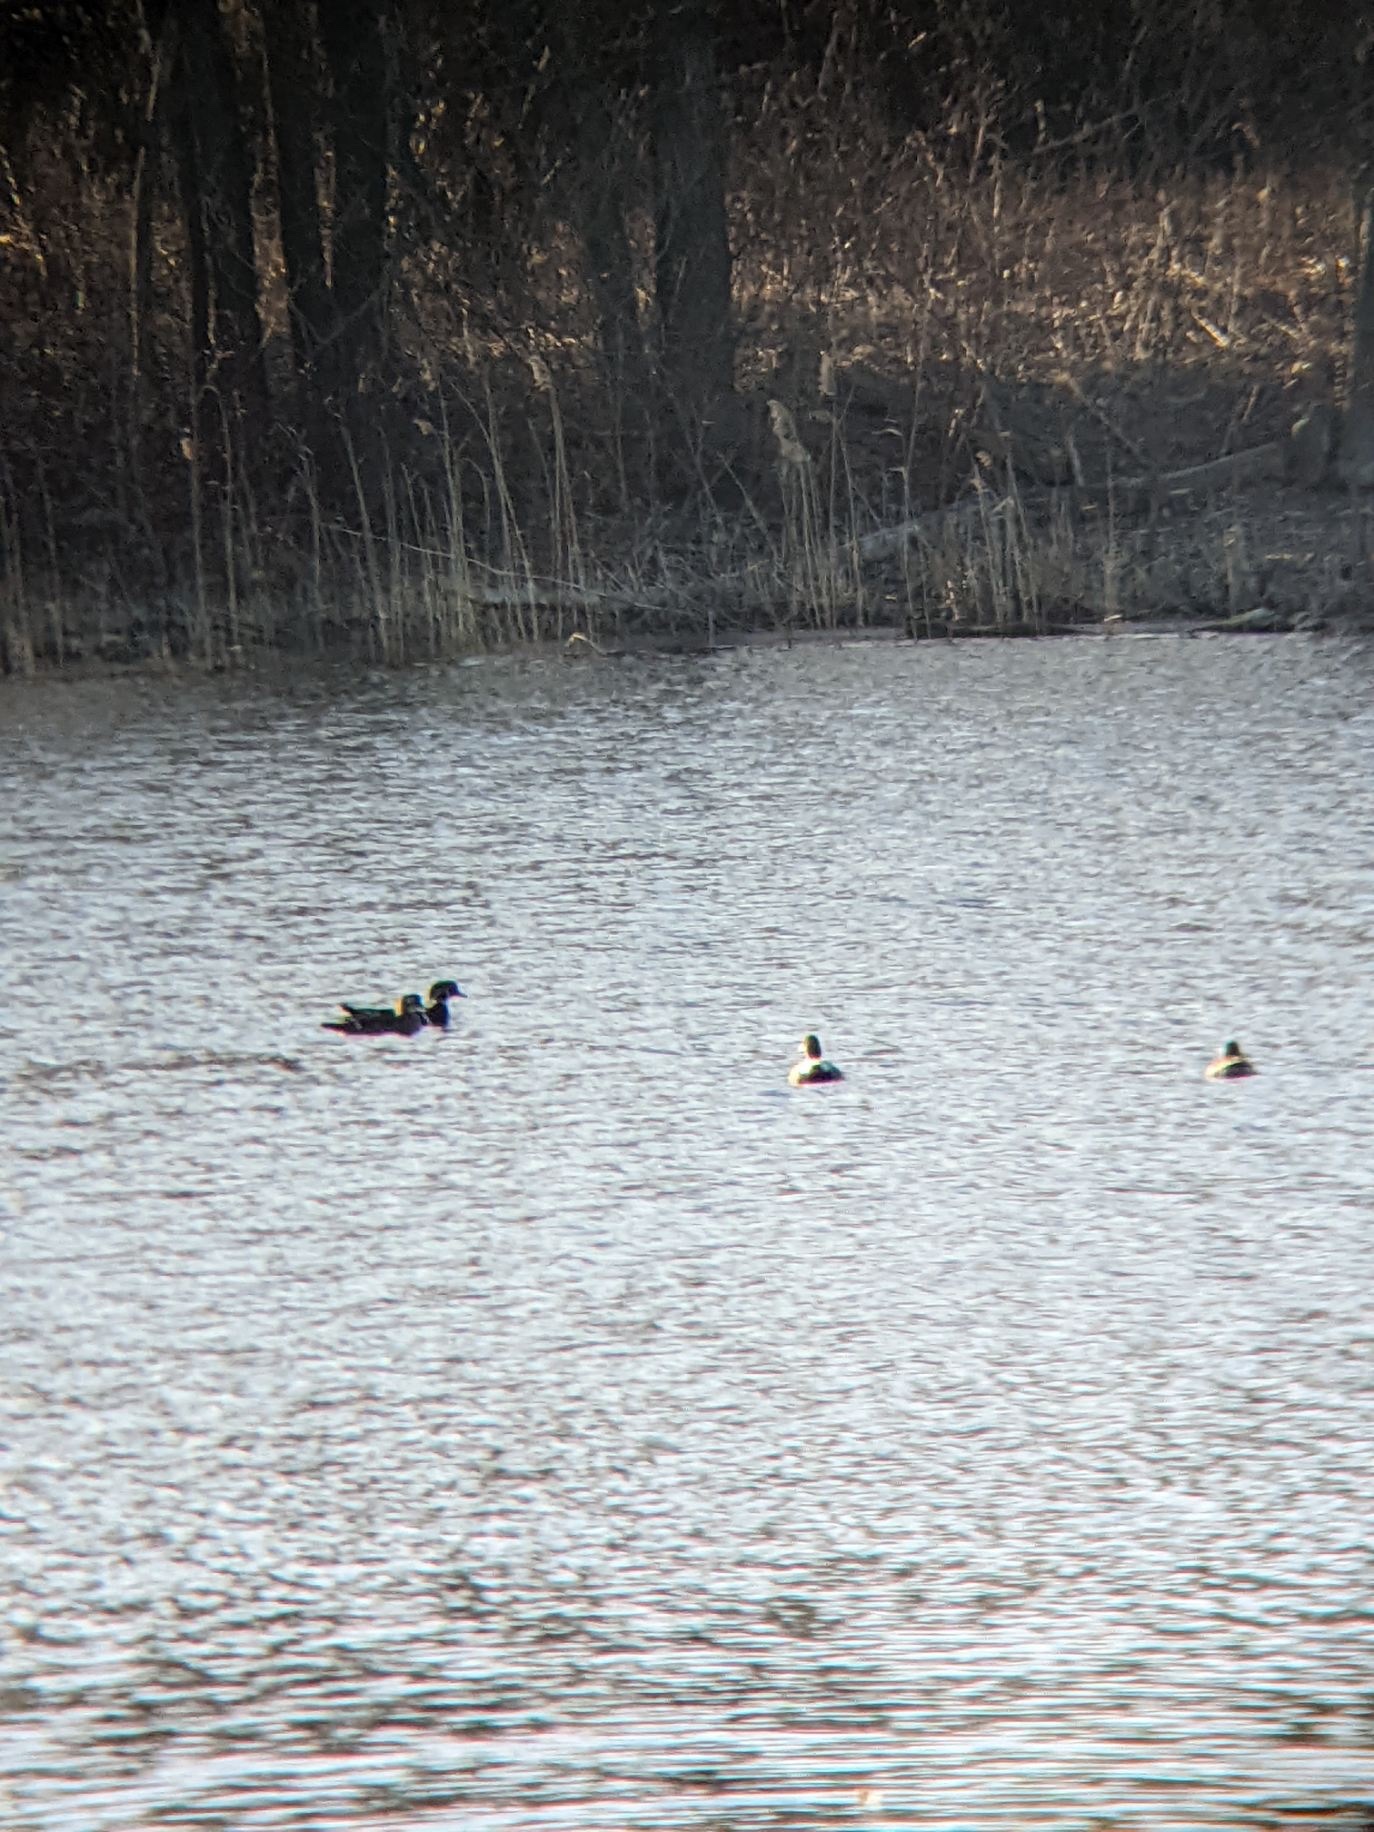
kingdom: Animalia
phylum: Chordata
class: Aves
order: Anseriformes
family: Anatidae
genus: Aix
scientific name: Aix sponsa
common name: Wood duck
